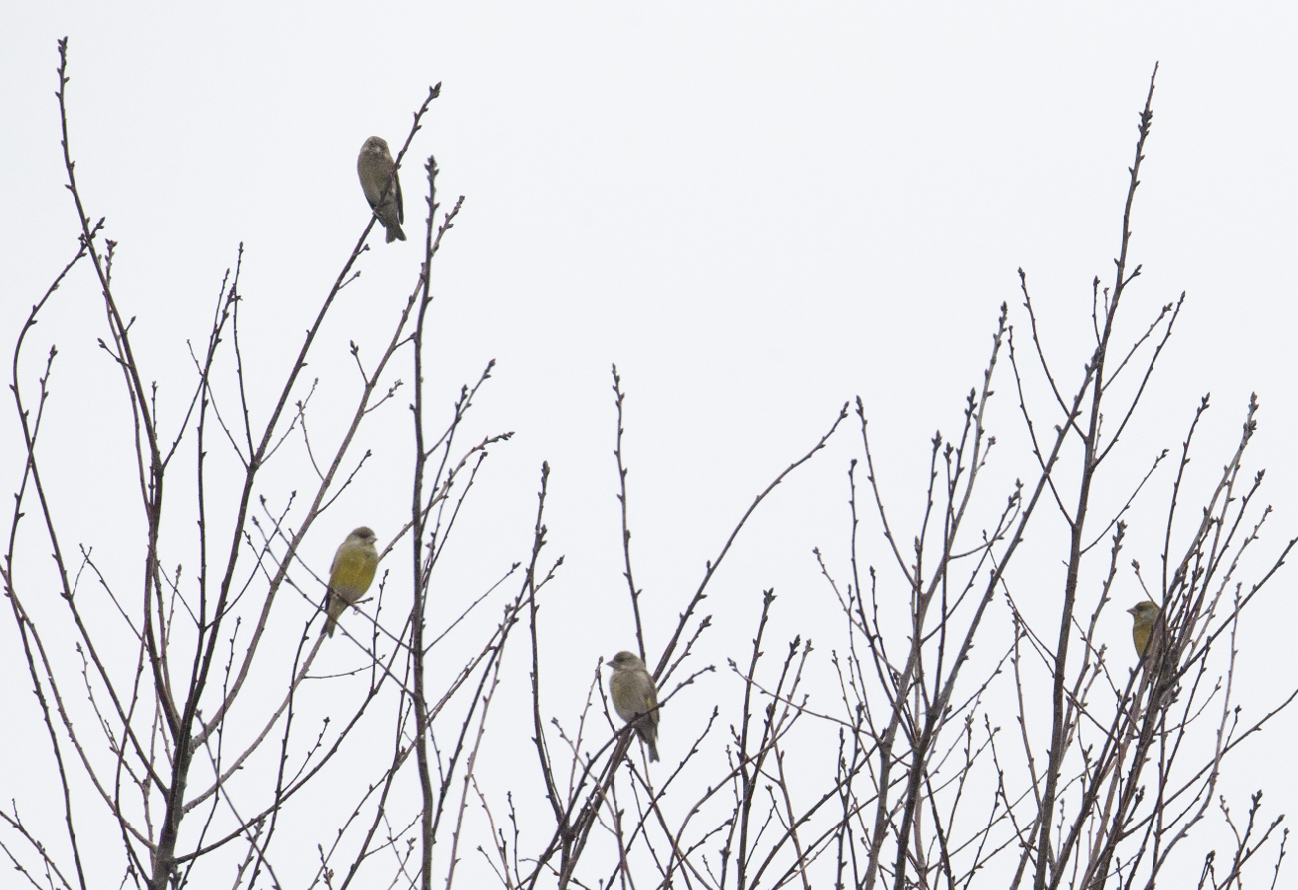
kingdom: Plantae
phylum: Tracheophyta
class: Liliopsida
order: Poales
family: Poaceae
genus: Chloris
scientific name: Chloris chloris
